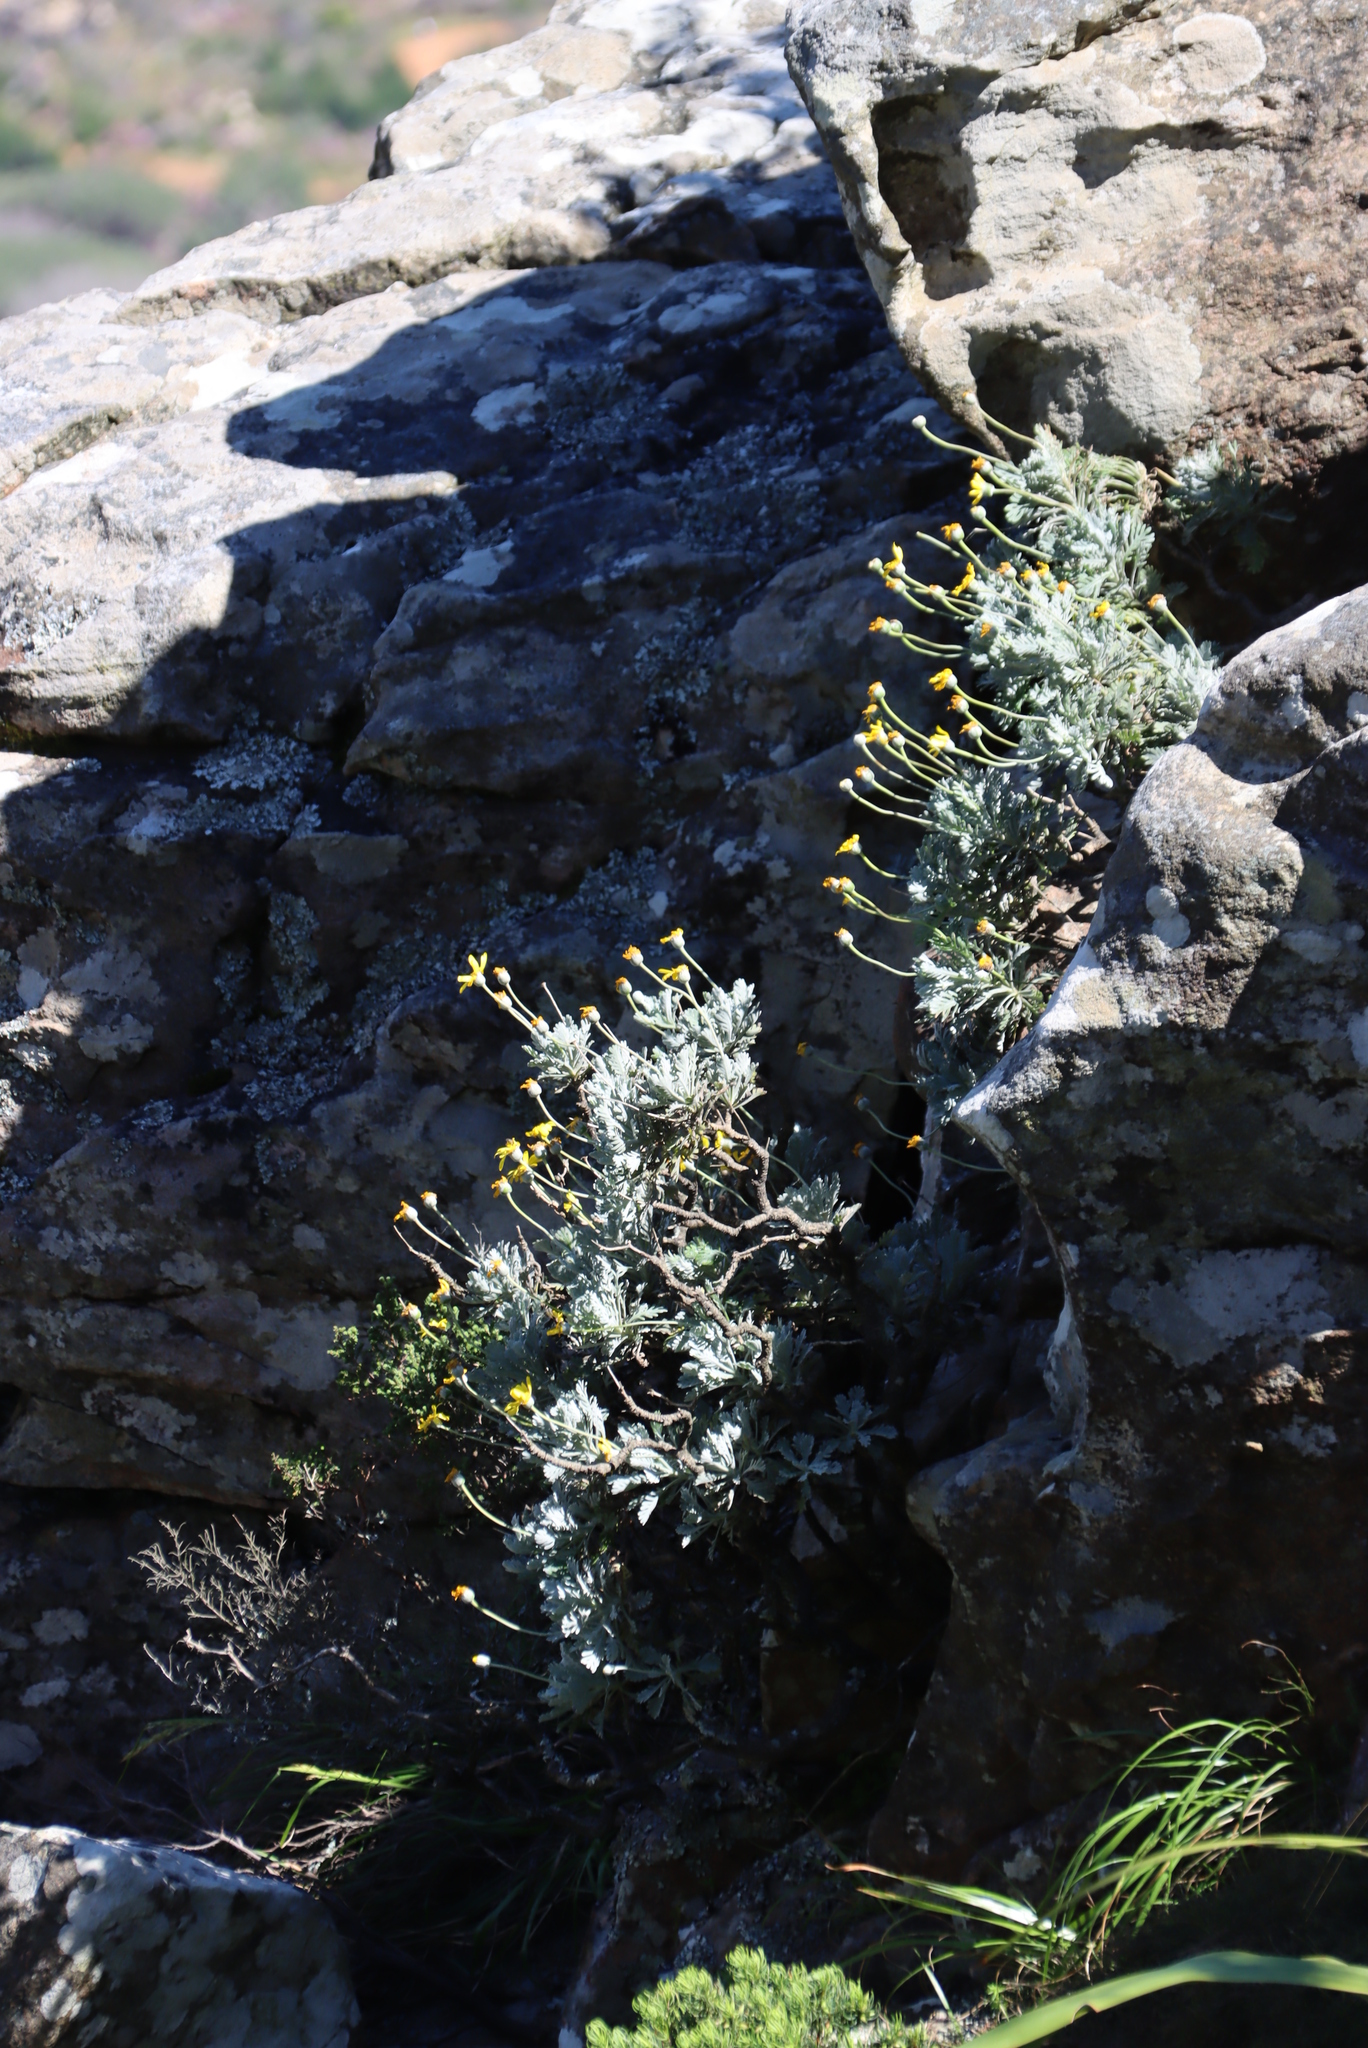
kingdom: Plantae
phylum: Tracheophyta
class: Magnoliopsida
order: Asterales
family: Asteraceae
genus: Euryops
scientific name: Euryops pectinatus
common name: Gray-leaf euryops
